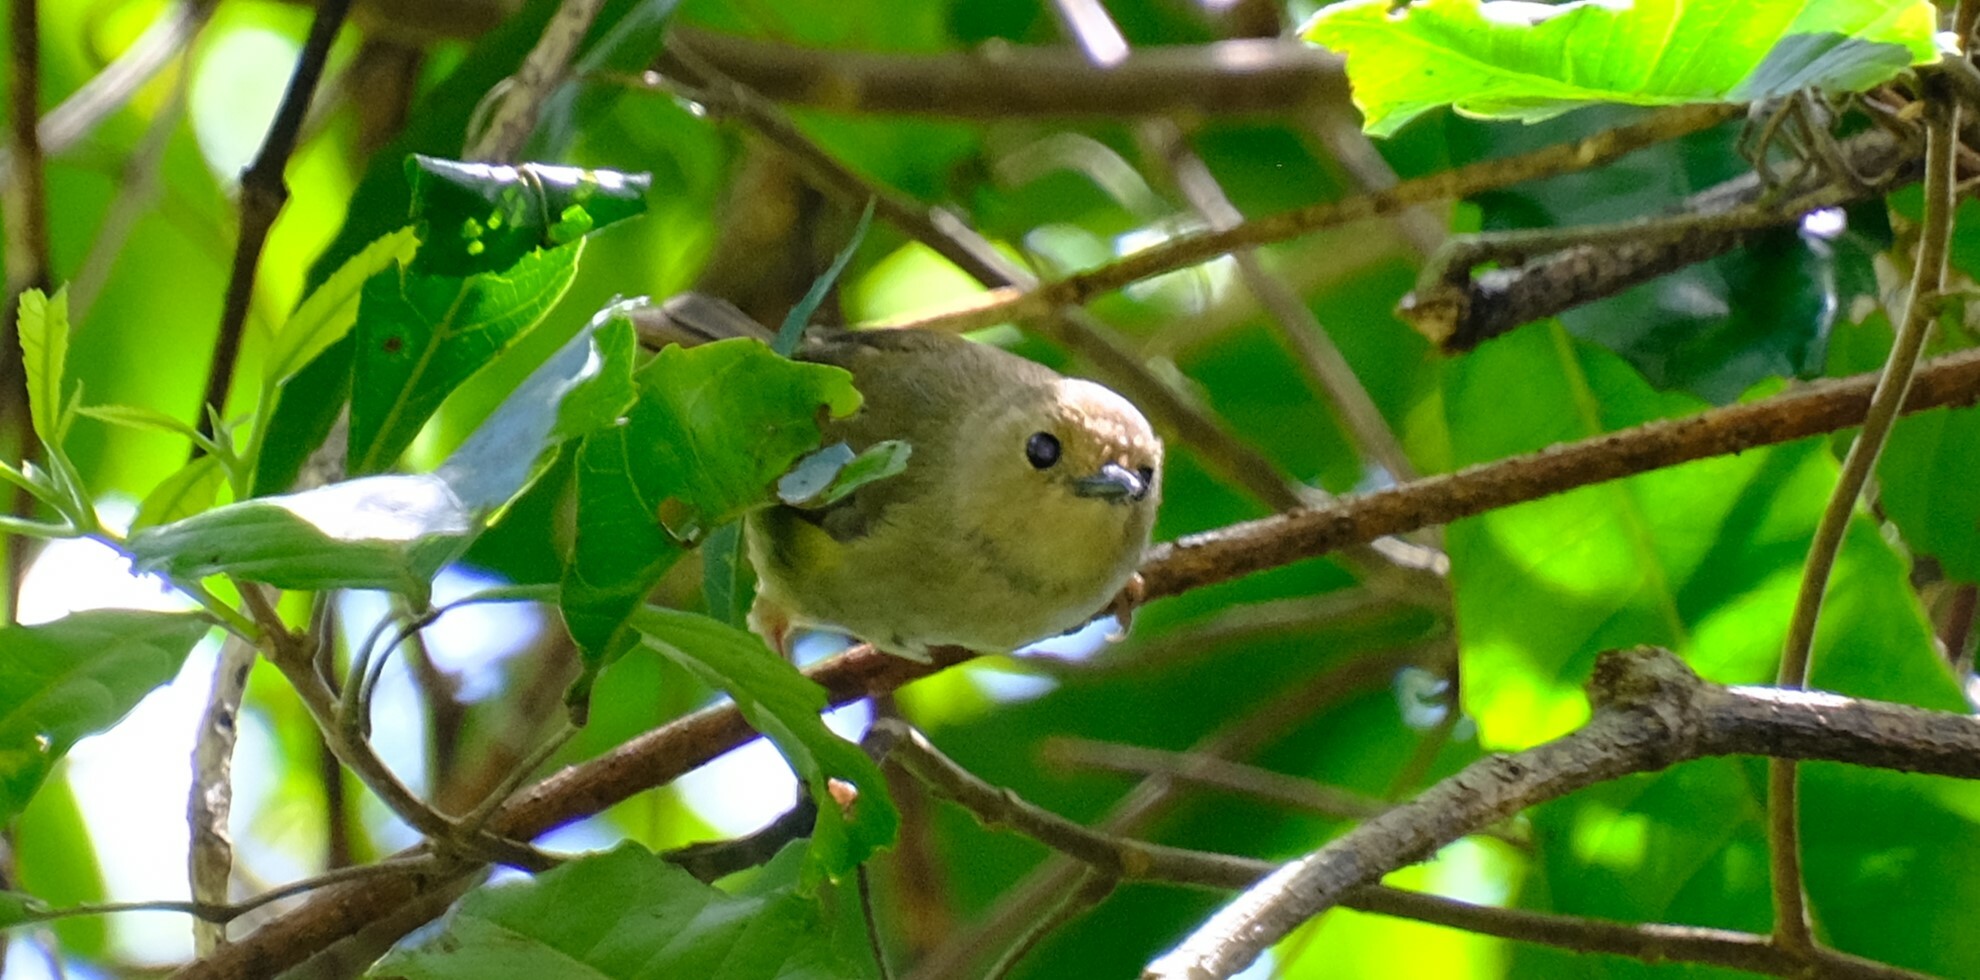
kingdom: Animalia
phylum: Chordata
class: Aves
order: Passeriformes
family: Acanthizidae
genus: Sericornis
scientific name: Sericornis magnirostra
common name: Large-billed scrubwren
